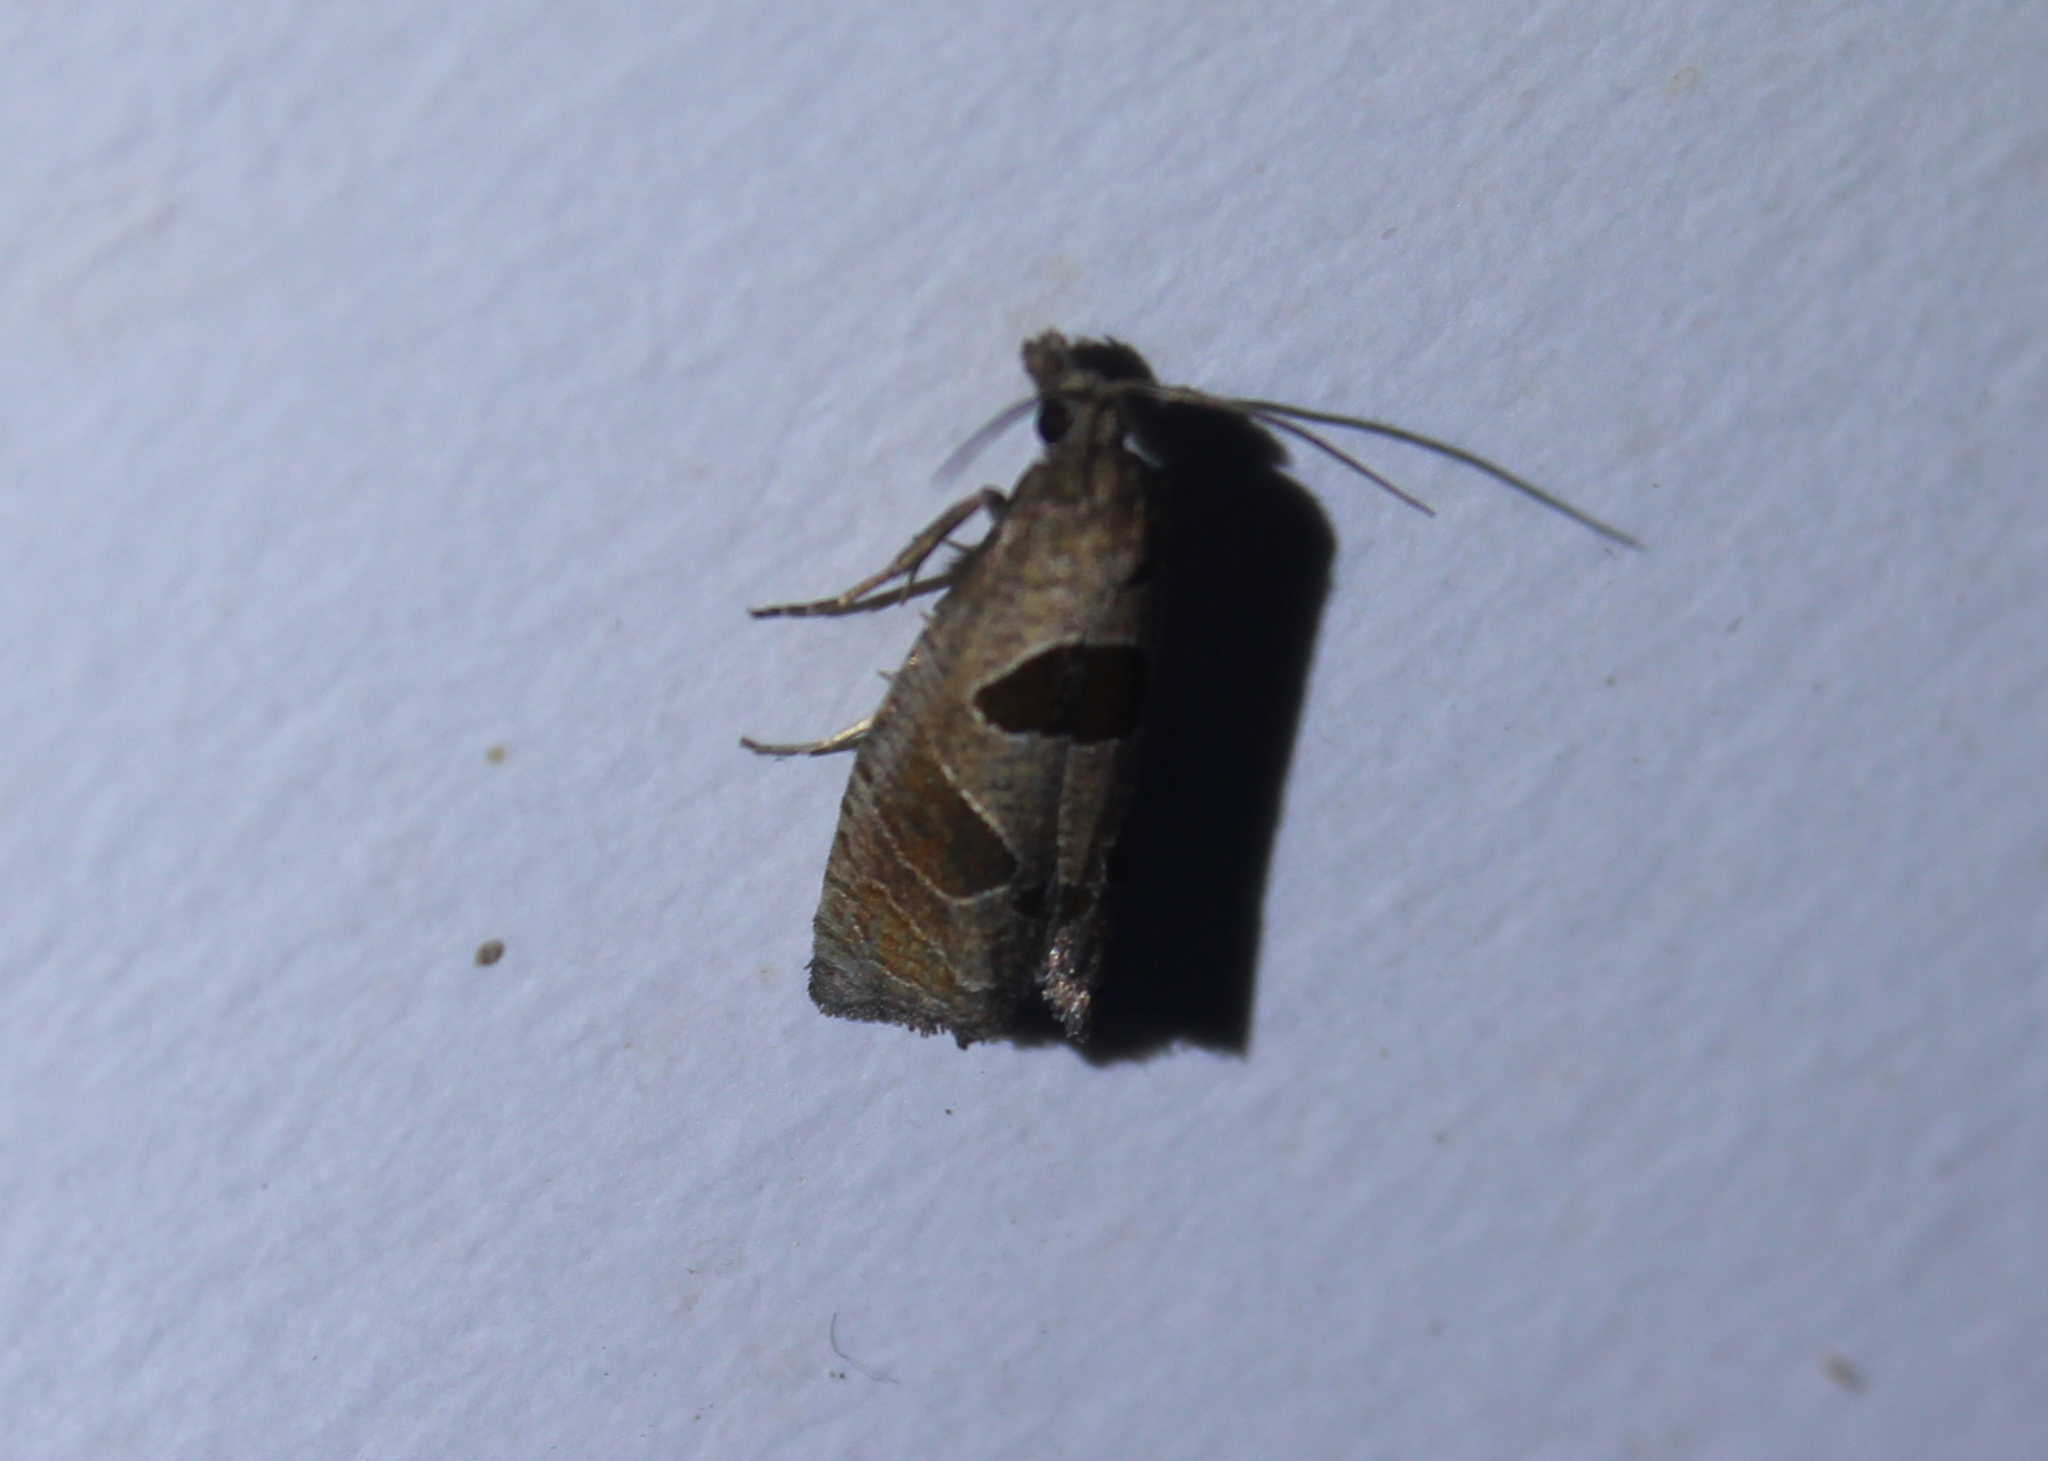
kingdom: Animalia
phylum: Arthropoda
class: Insecta
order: Lepidoptera
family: Tortricidae
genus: Pelochrista
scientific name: Pelochrista dorsisignatana
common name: Triangle-backed pelochrista moth
